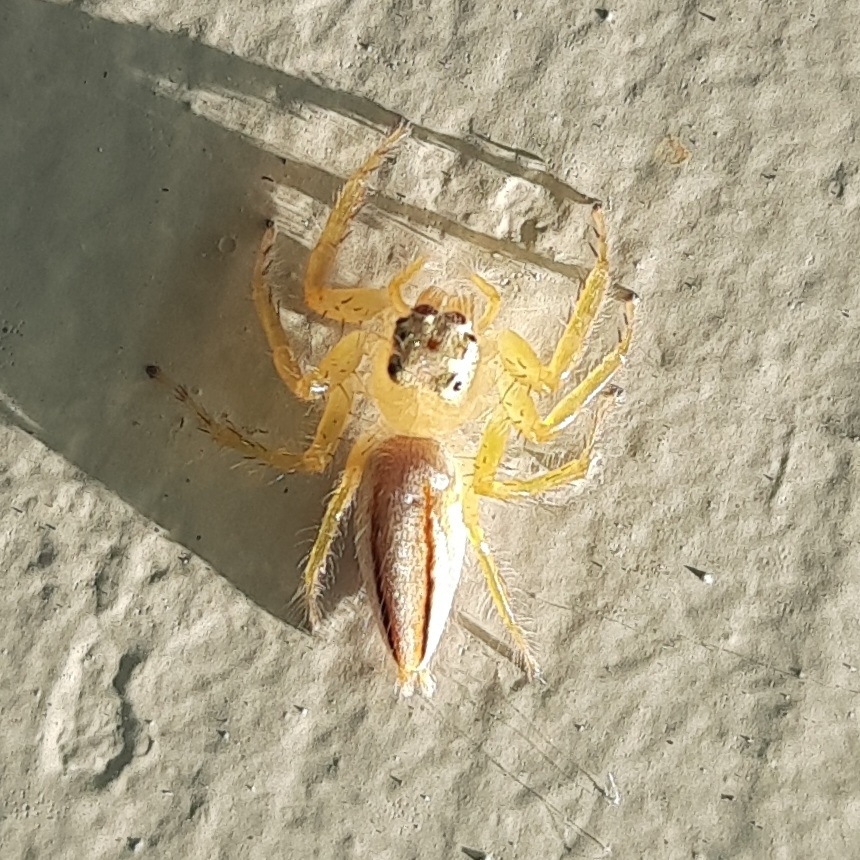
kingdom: Animalia
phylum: Arthropoda
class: Arachnida
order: Araneae
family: Salticidae
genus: Telamonia
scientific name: Telamonia dimidiata
